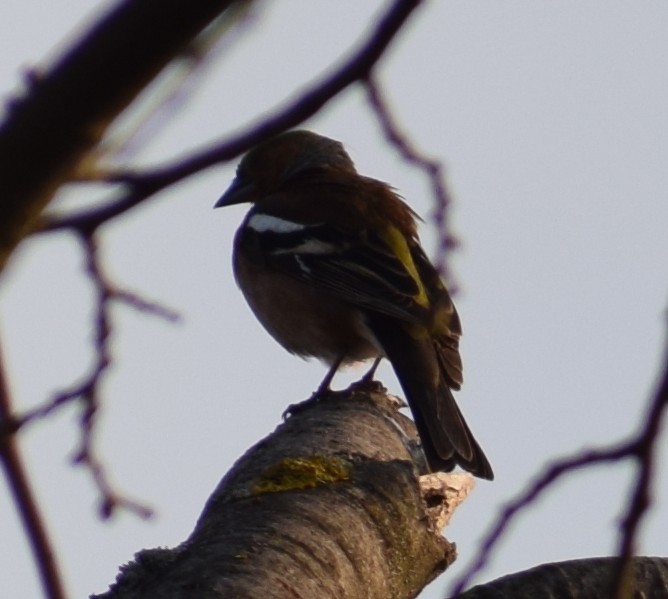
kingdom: Animalia
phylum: Chordata
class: Aves
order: Passeriformes
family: Fringillidae
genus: Fringilla
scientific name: Fringilla coelebs
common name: Common chaffinch
